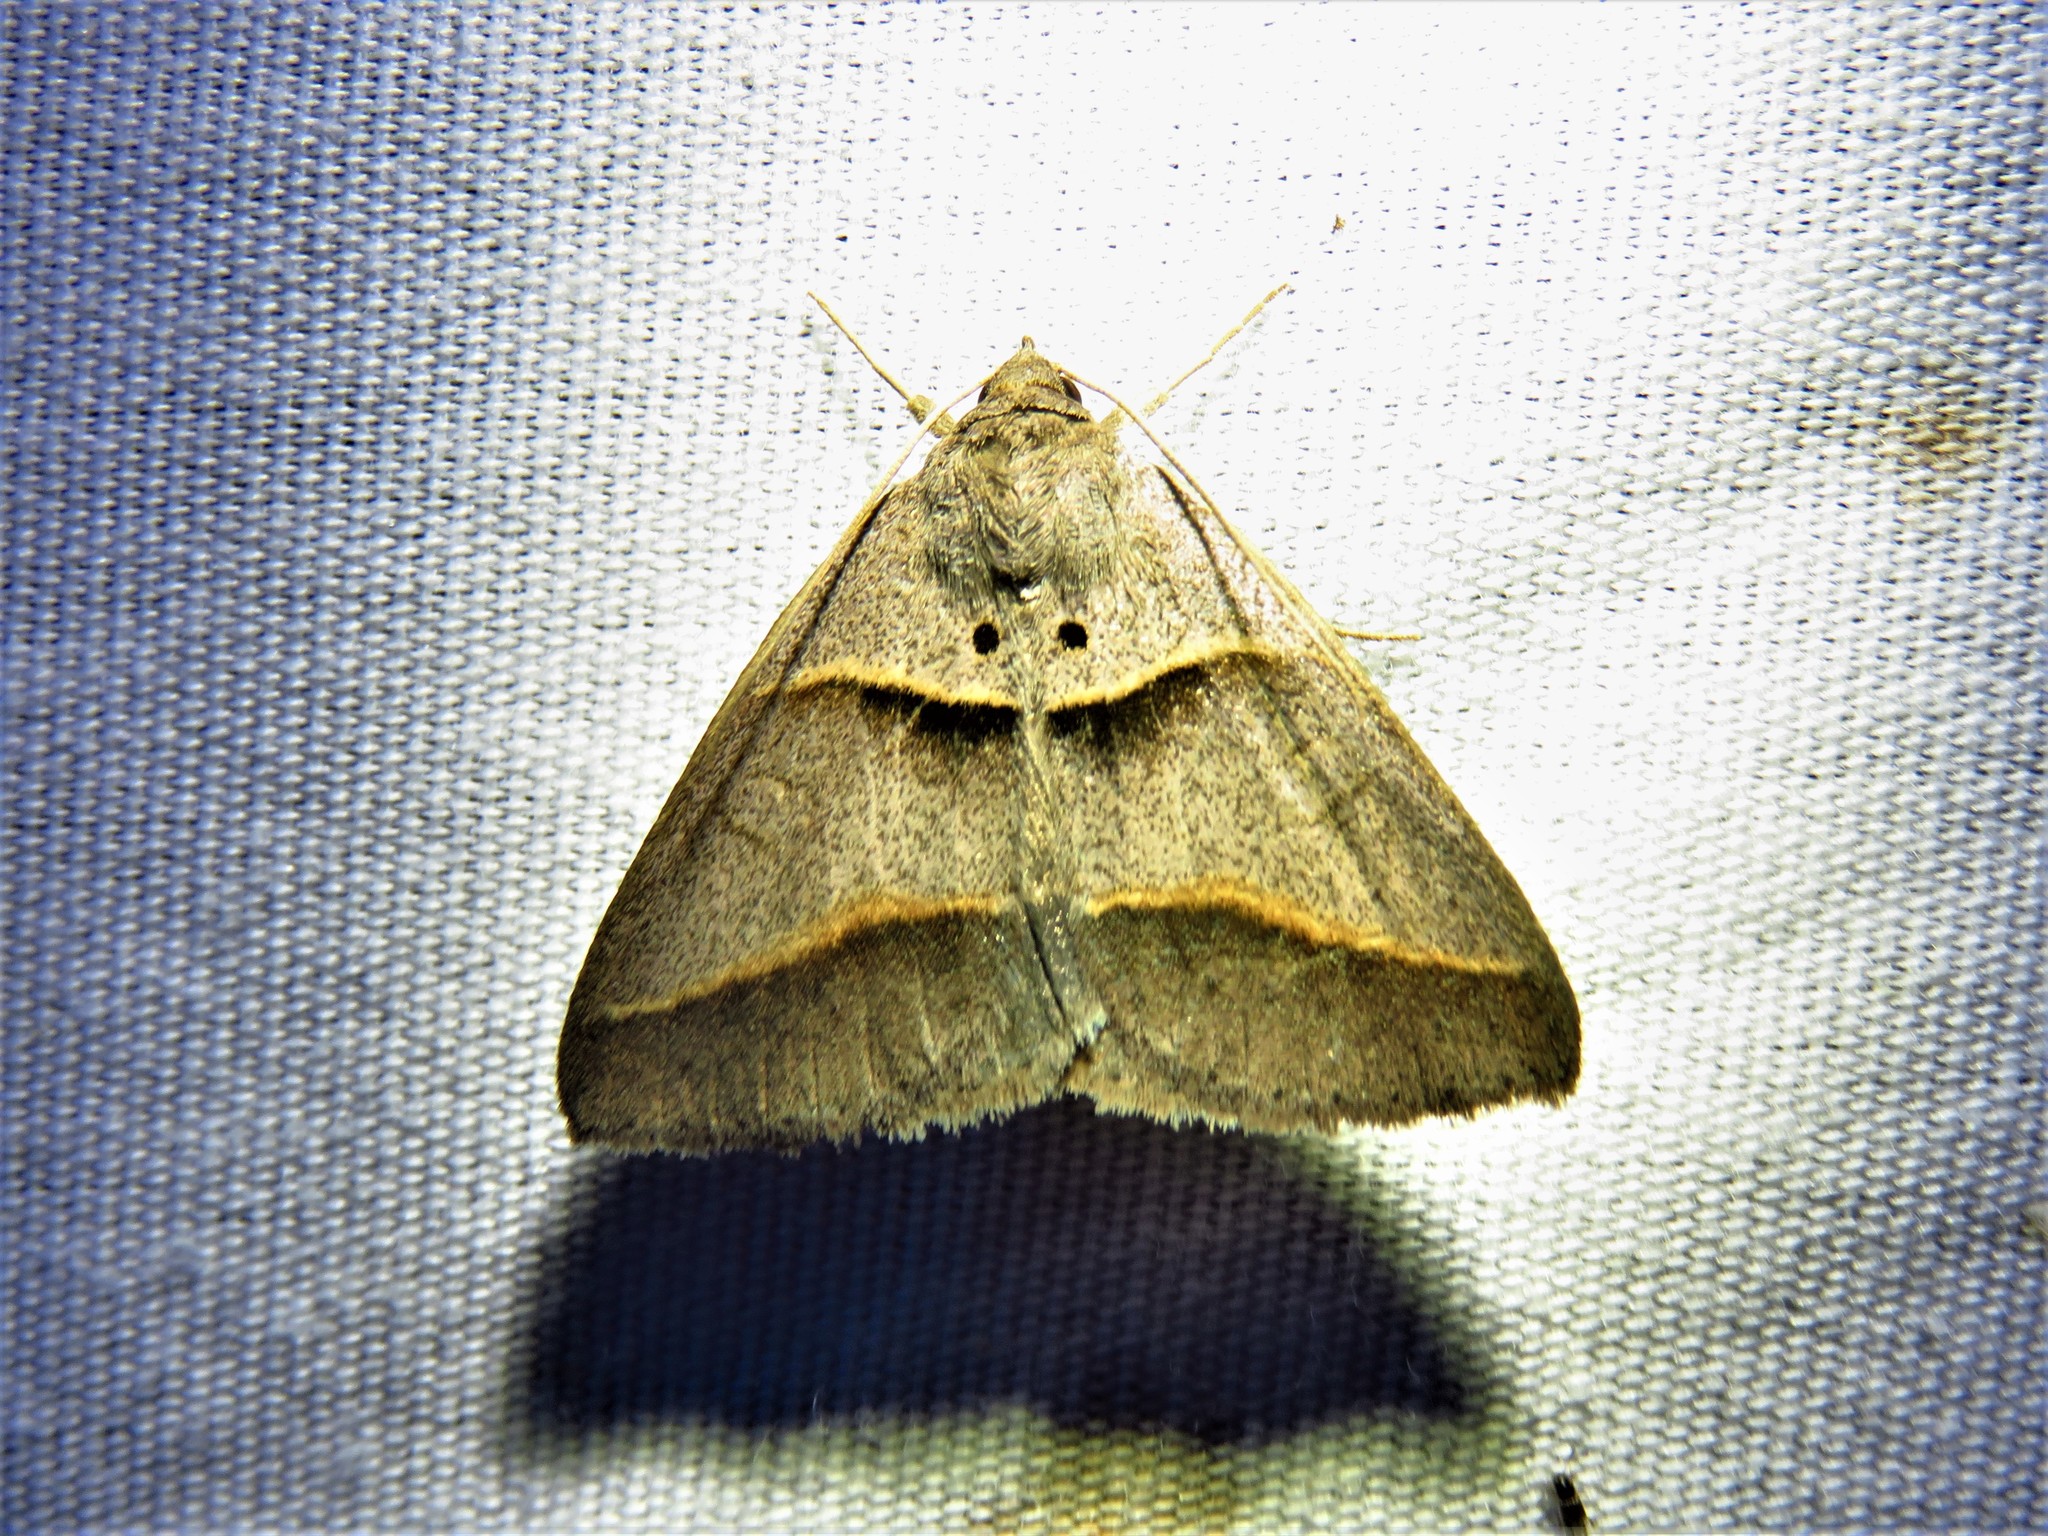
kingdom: Animalia
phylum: Arthropoda
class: Insecta
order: Lepidoptera
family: Erebidae
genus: Ptichodis
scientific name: Ptichodis herbarum
